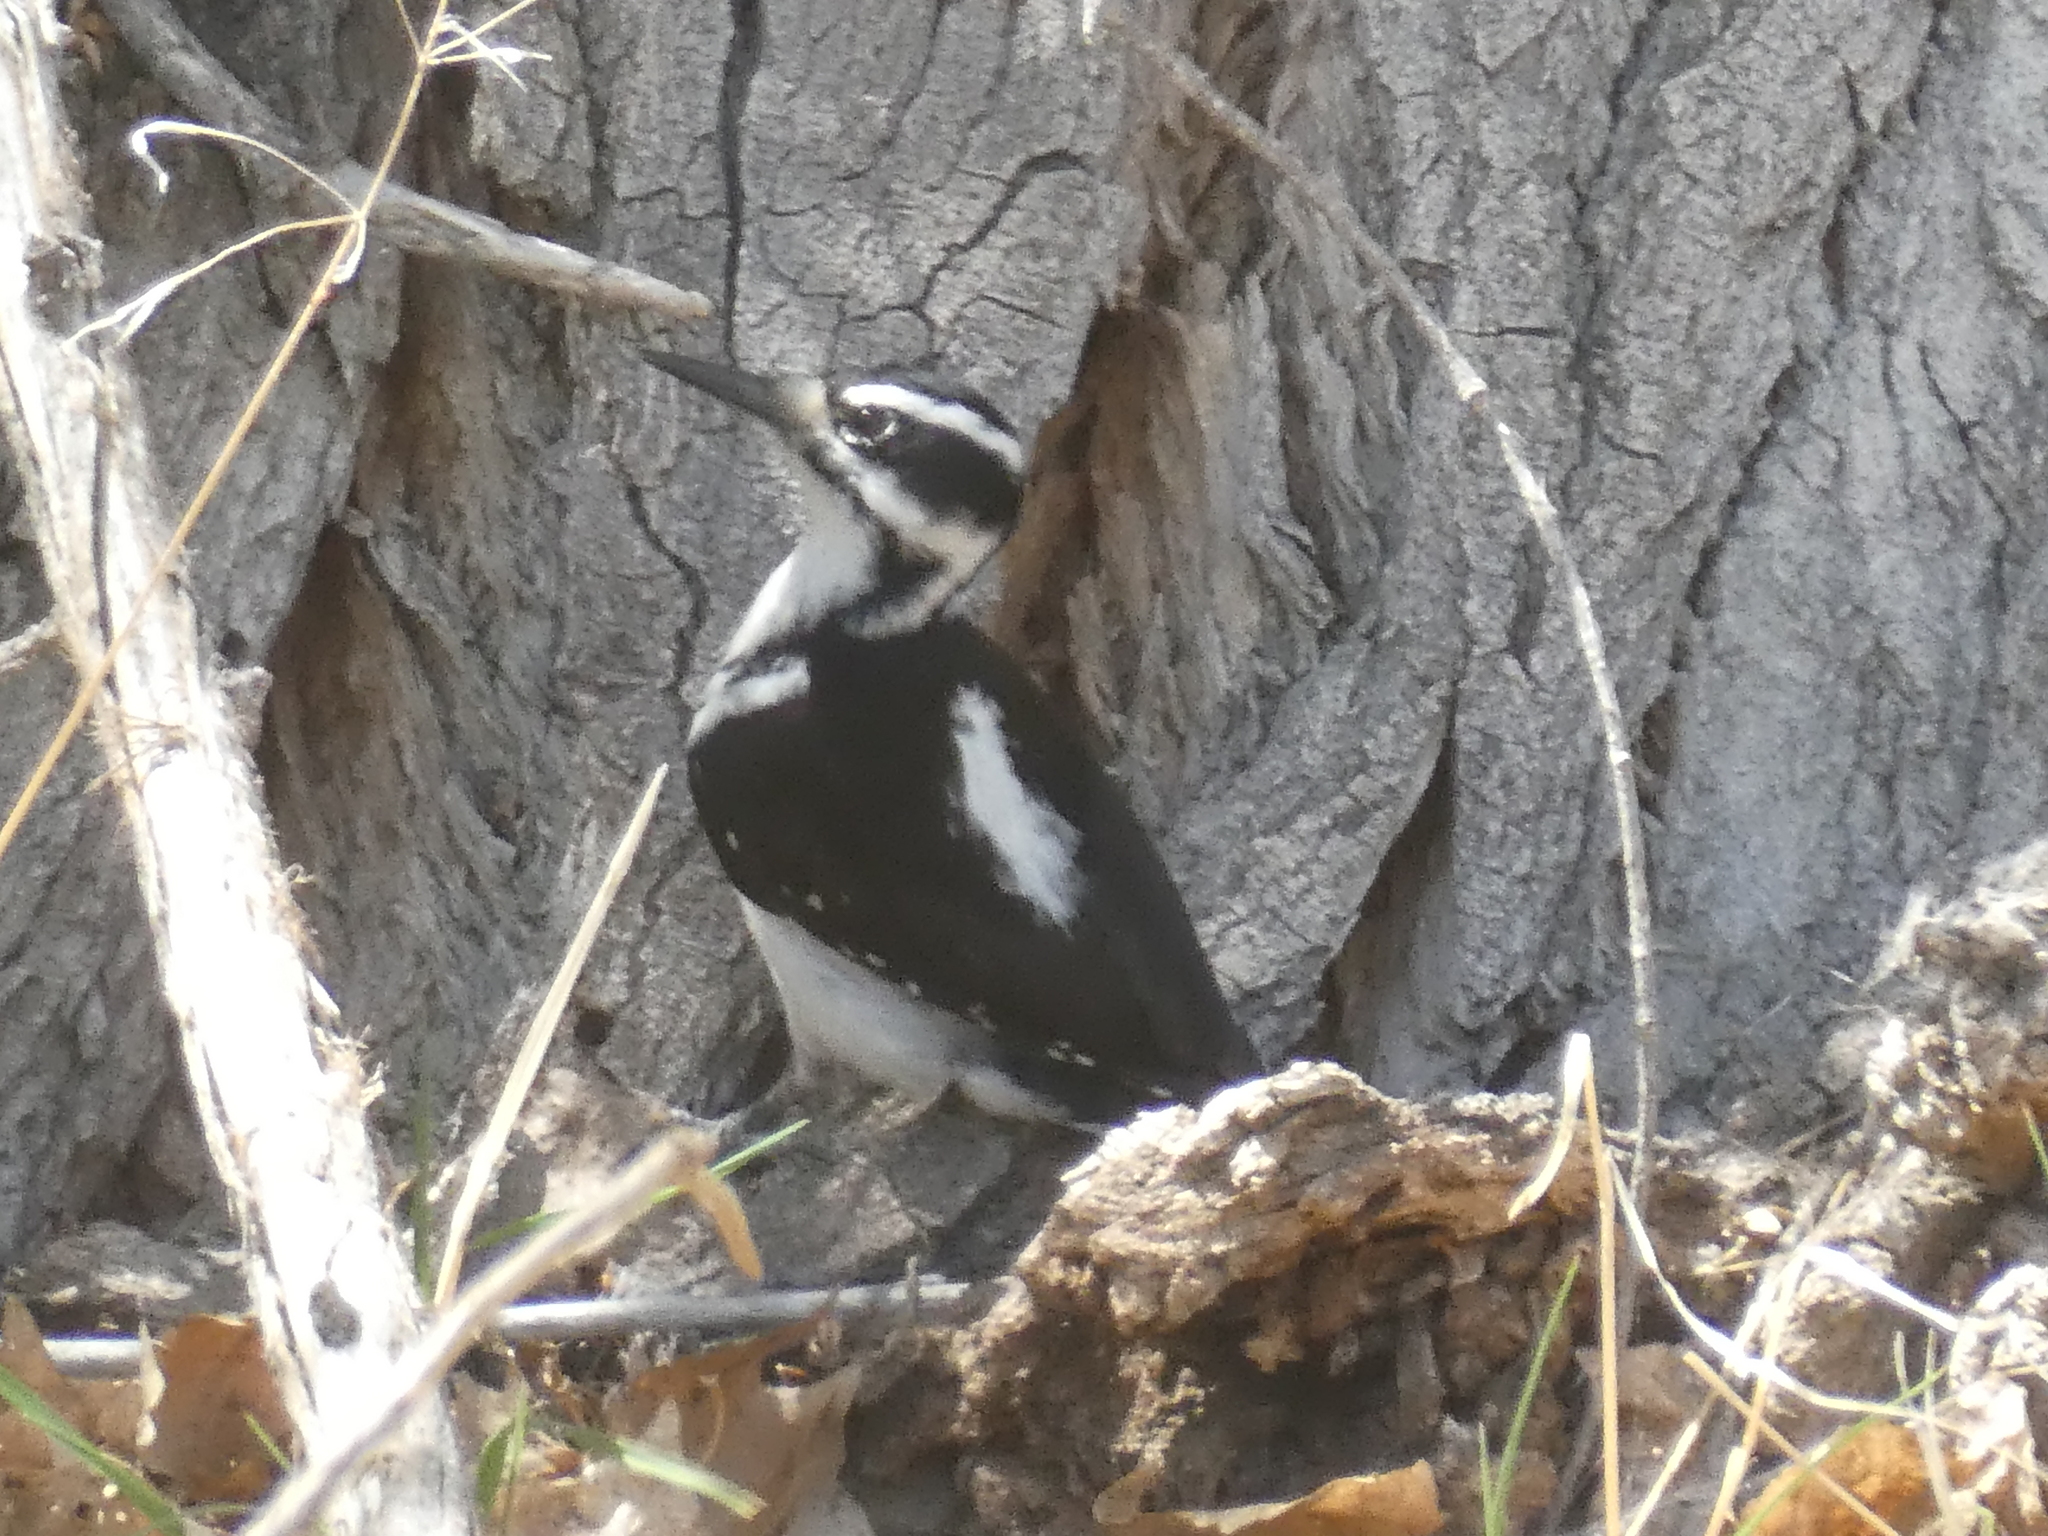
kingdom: Animalia
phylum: Chordata
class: Aves
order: Piciformes
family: Picidae
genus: Leuconotopicus
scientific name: Leuconotopicus villosus
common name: Hairy woodpecker
